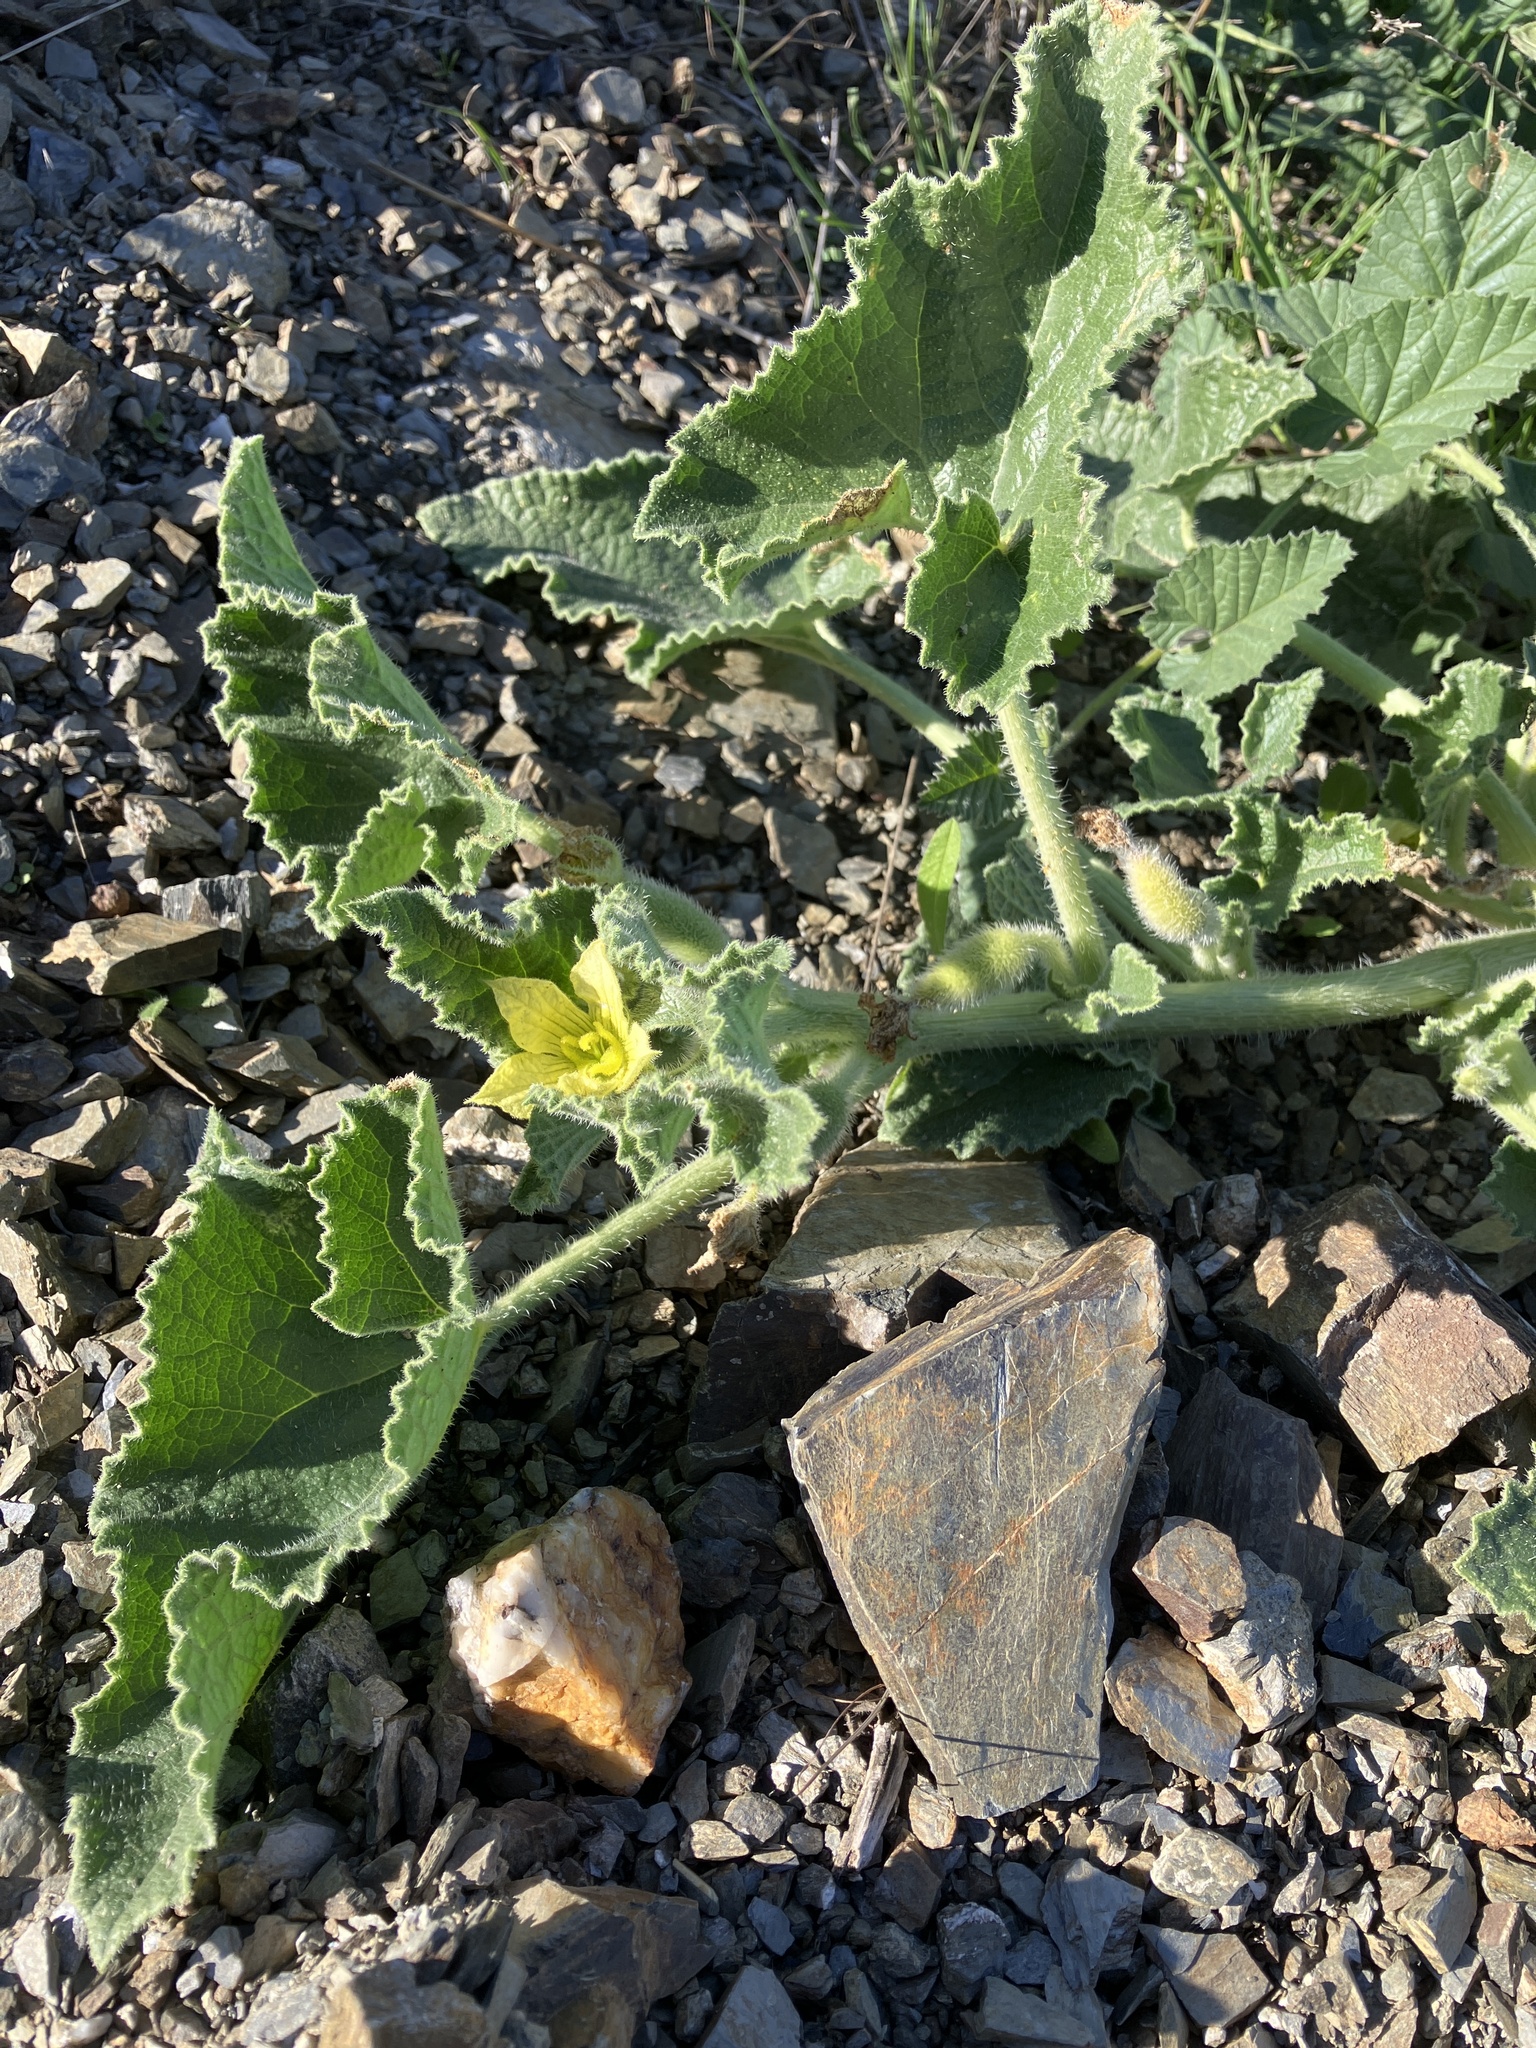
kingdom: Plantae
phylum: Tracheophyta
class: Magnoliopsida
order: Cucurbitales
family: Cucurbitaceae
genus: Ecballium
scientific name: Ecballium elaterium
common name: Squirting cucumber
